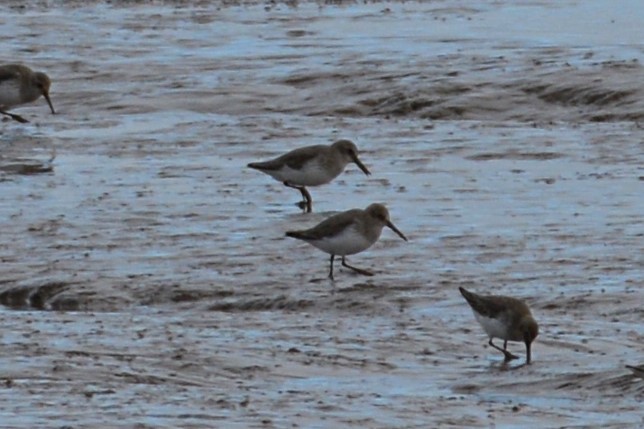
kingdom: Animalia
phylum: Chordata
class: Aves
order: Charadriiformes
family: Scolopacidae
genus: Calidris
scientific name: Calidris alpina
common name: Dunlin
